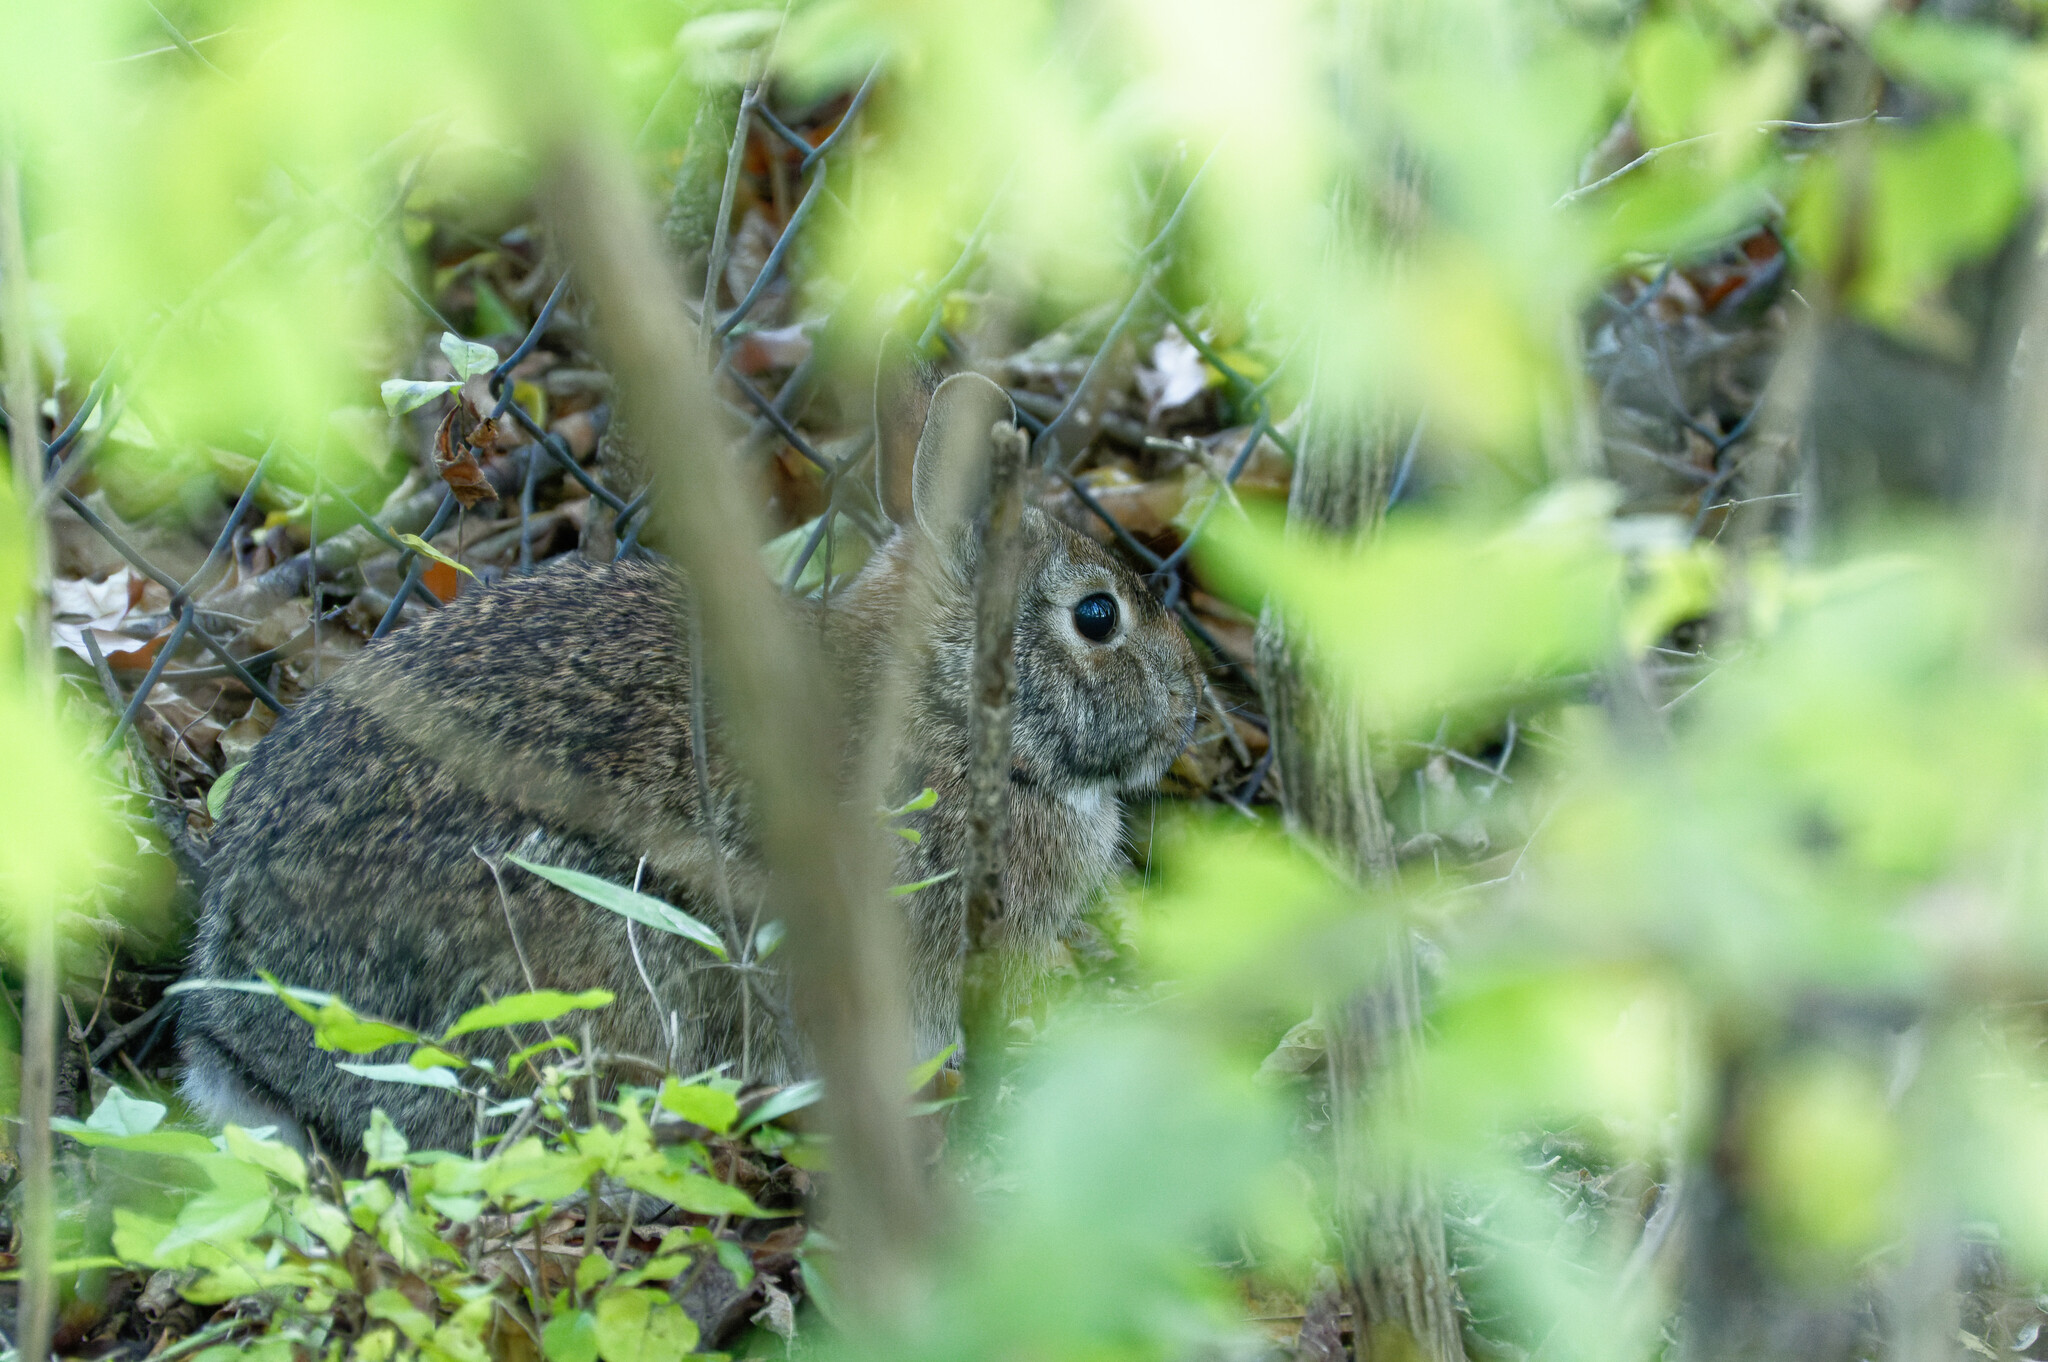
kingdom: Animalia
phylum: Chordata
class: Mammalia
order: Lagomorpha
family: Leporidae
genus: Sylvilagus
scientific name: Sylvilagus floridanus
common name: Eastern cottontail
